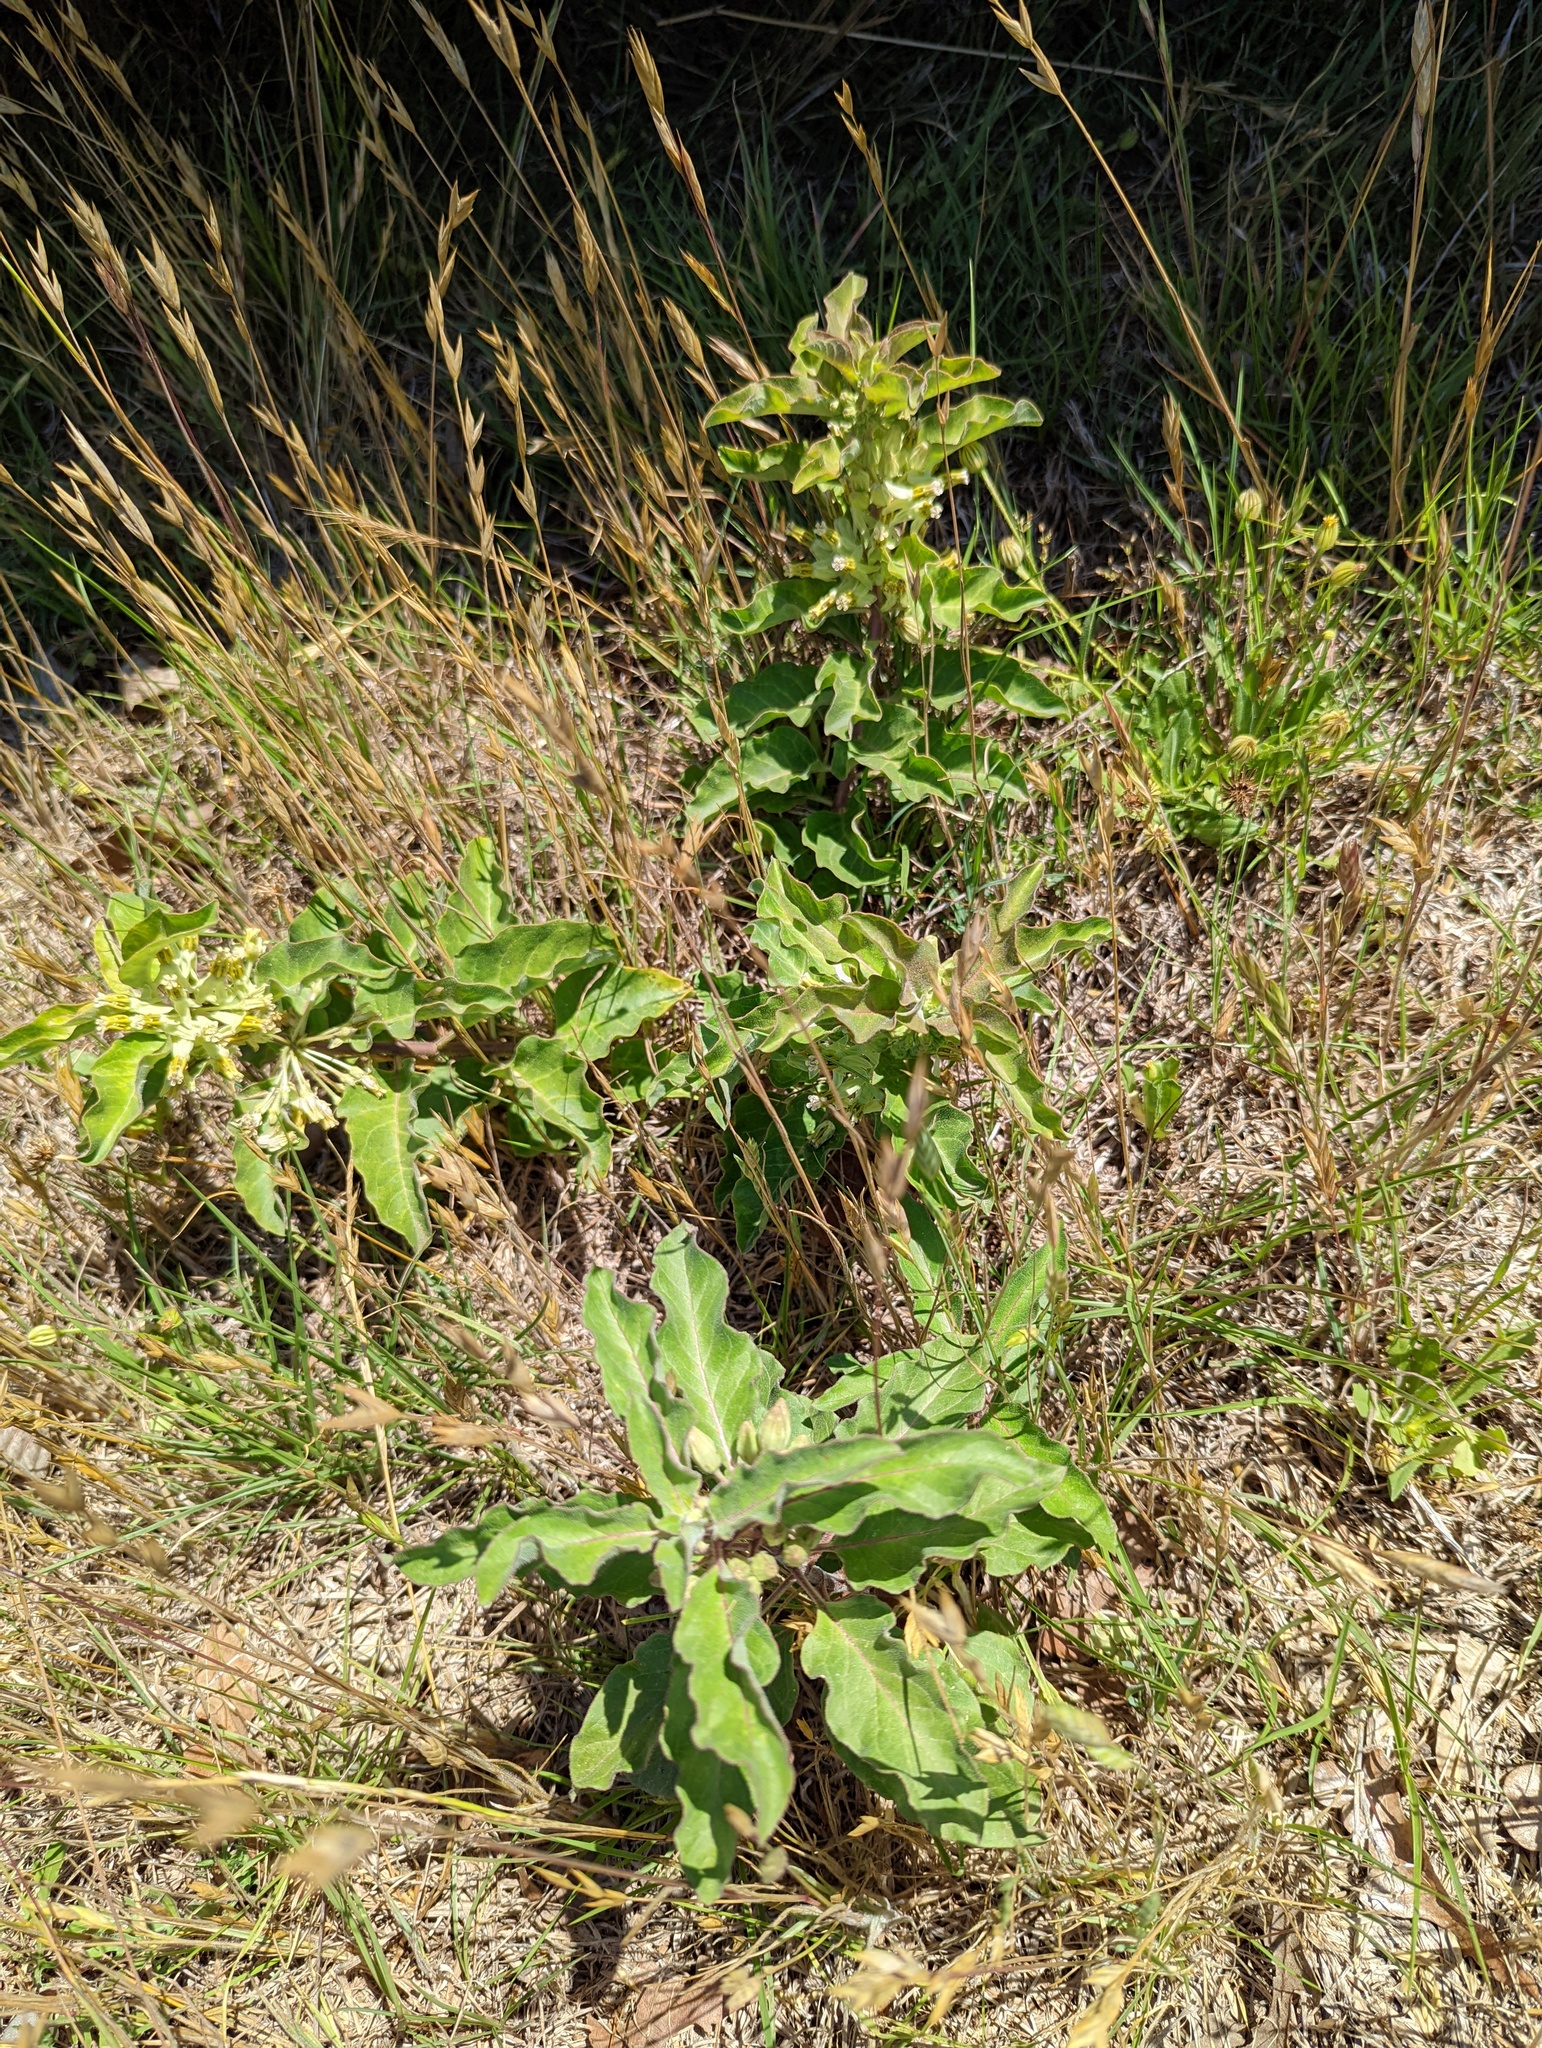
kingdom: Plantae
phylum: Tracheophyta
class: Magnoliopsida
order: Gentianales
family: Apocynaceae
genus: Asclepias
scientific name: Asclepias oenotheroides
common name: Zizotes milkweed
